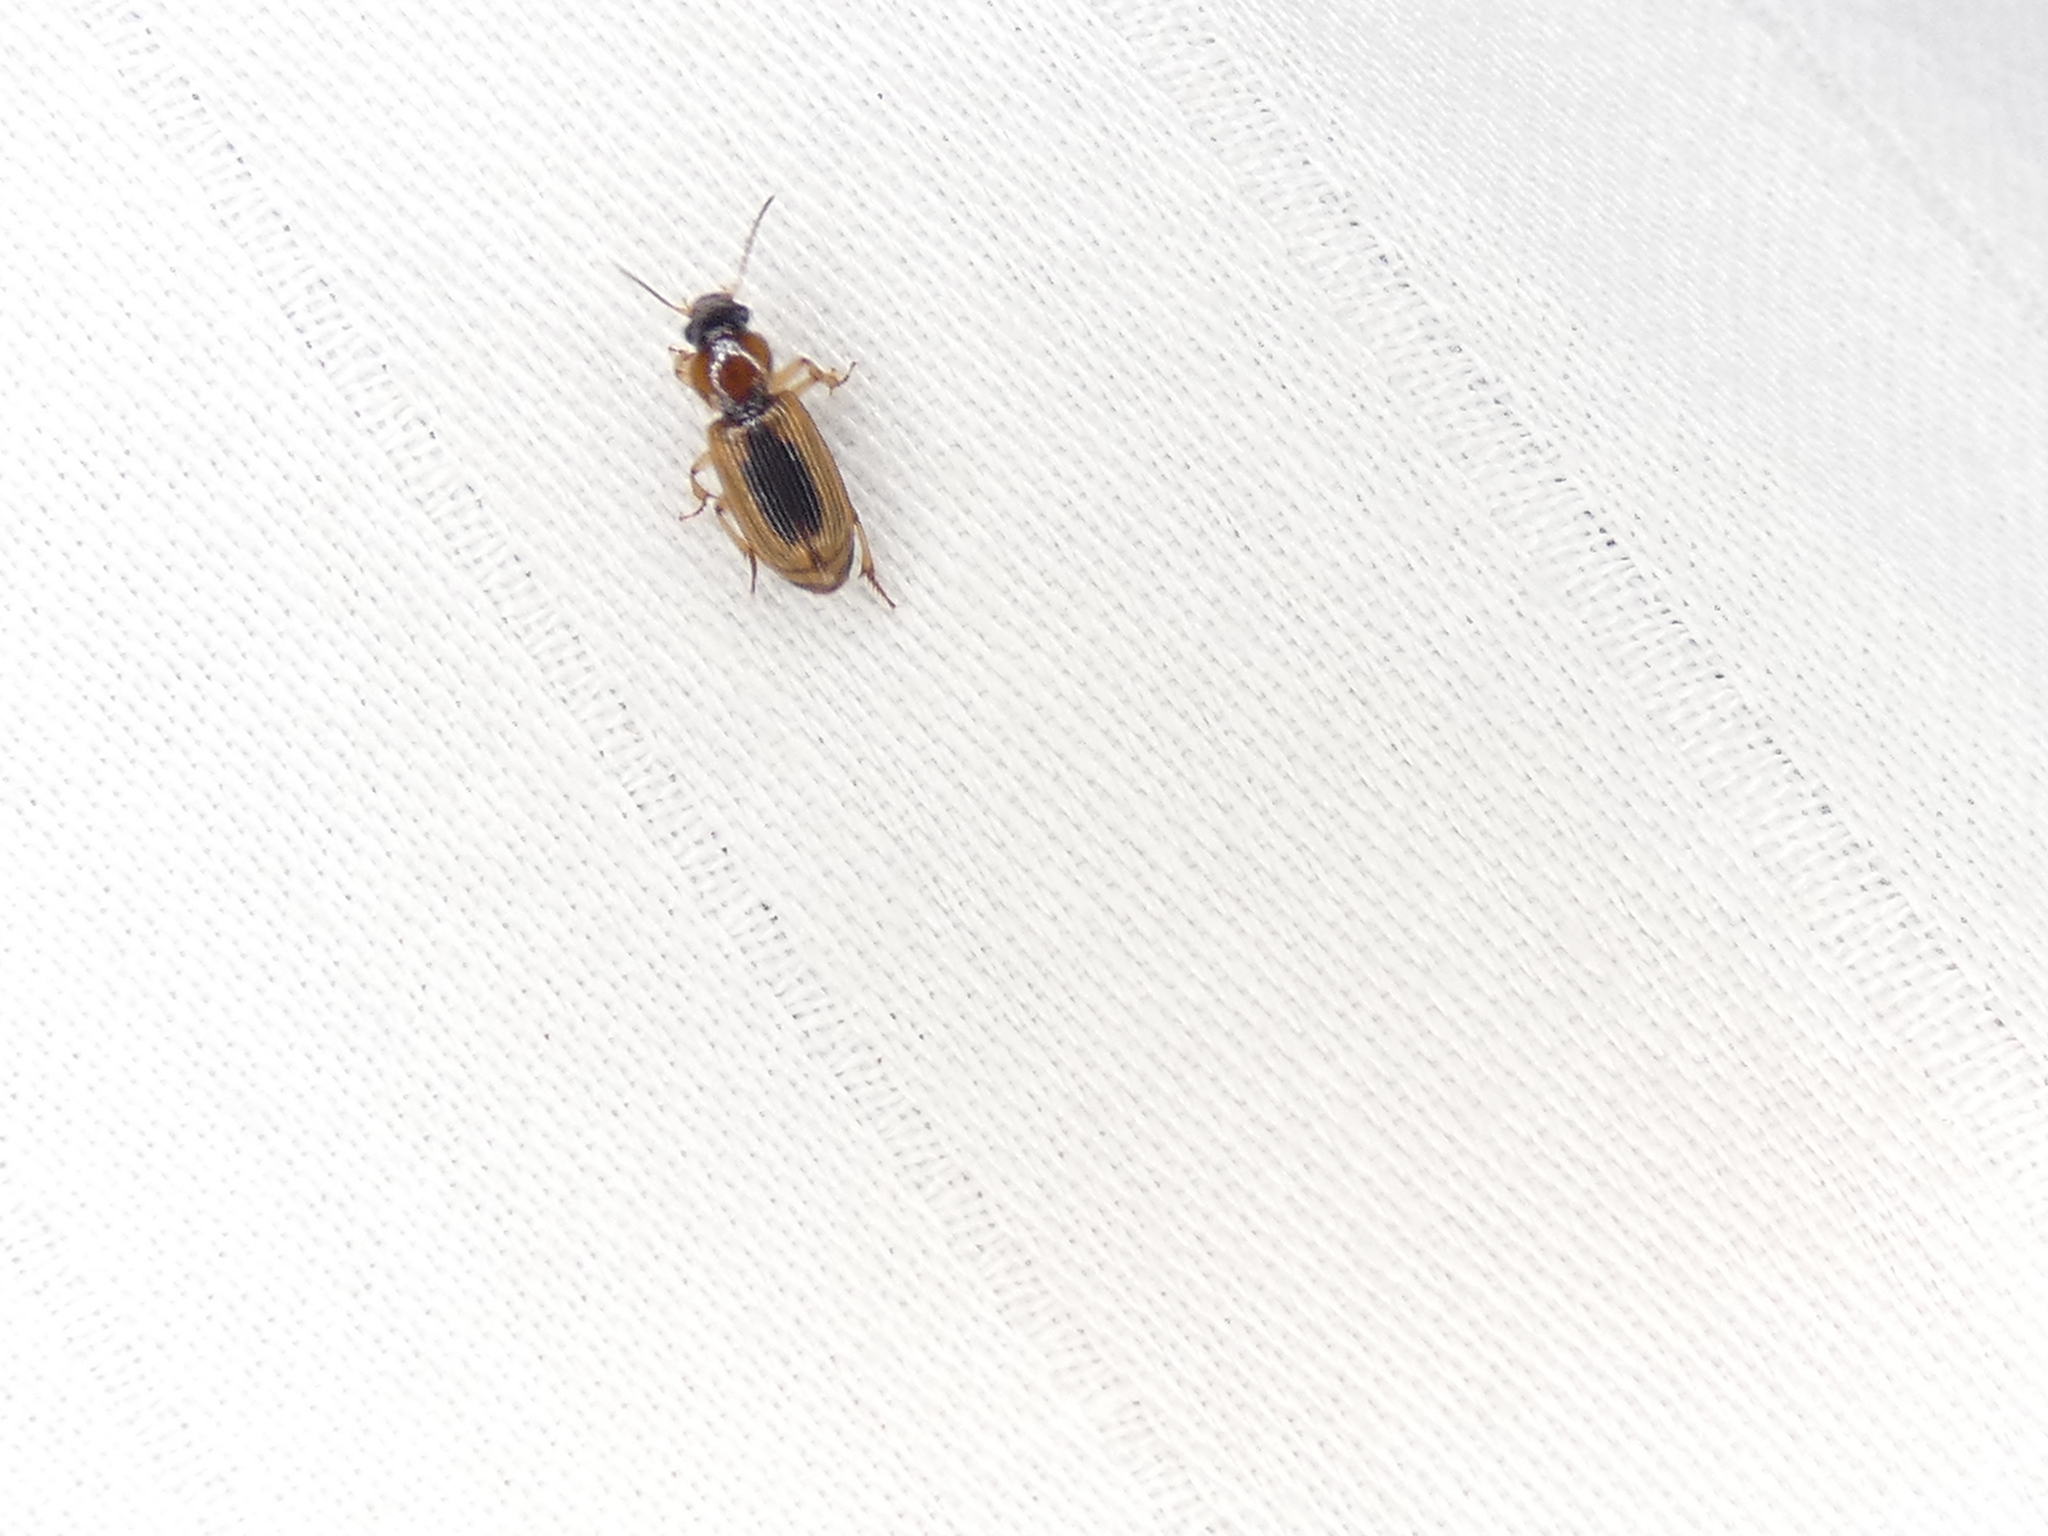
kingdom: Animalia
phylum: Arthropoda
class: Insecta
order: Coleoptera
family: Carabidae
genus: Stenolophus
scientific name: Stenolophus lecontei
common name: Leconte's seedcorn beetle
